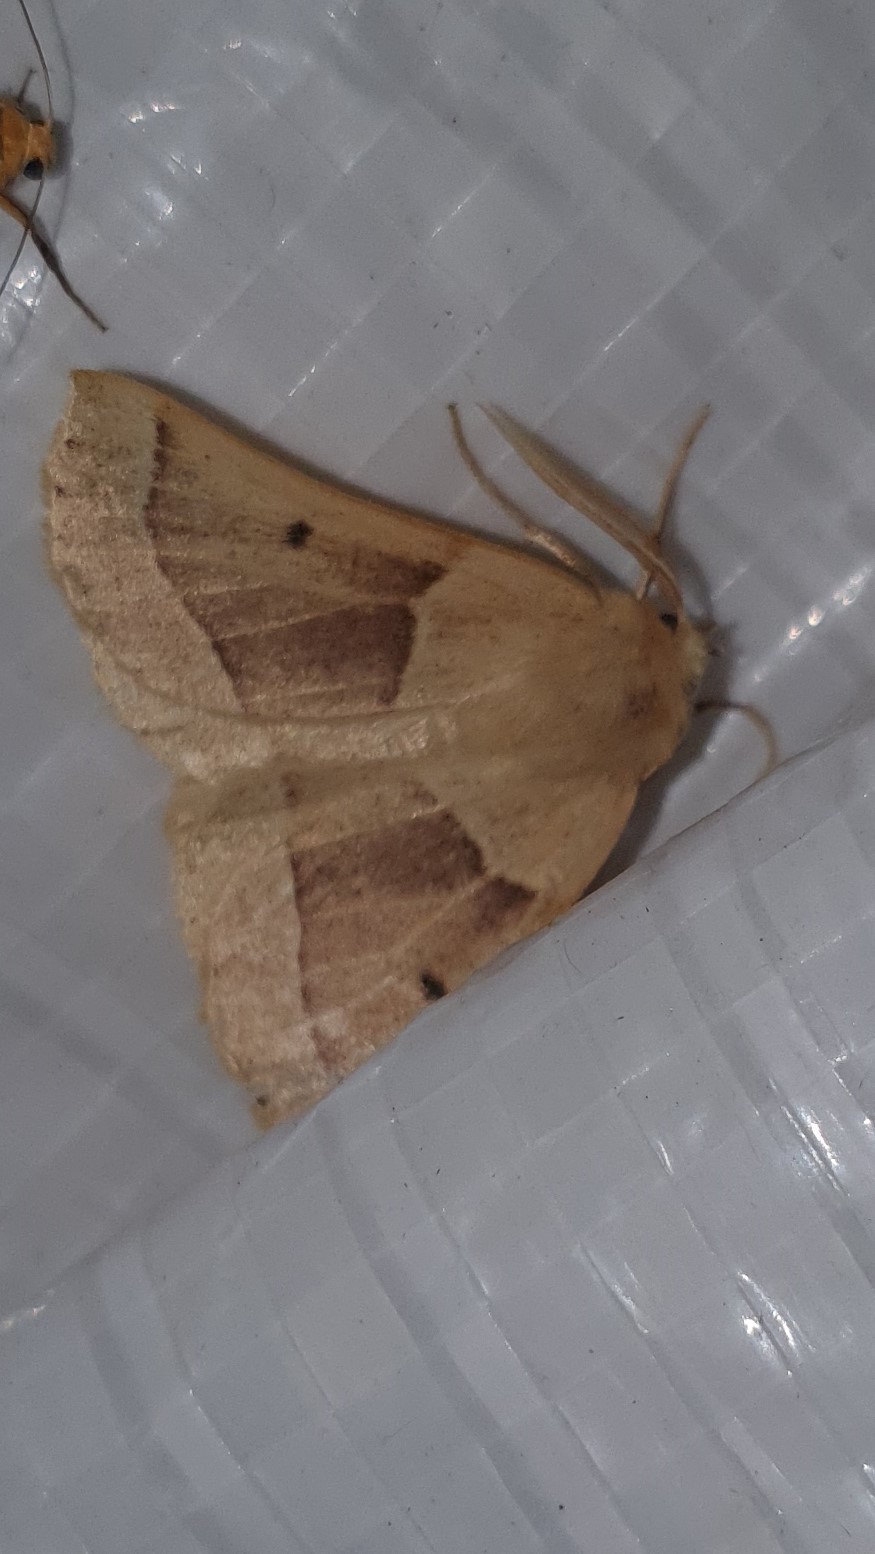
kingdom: Animalia
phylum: Arthropoda
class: Insecta
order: Lepidoptera
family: Geometridae
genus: Crocallis
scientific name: Crocallis elinguaria
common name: Scalloped oak
